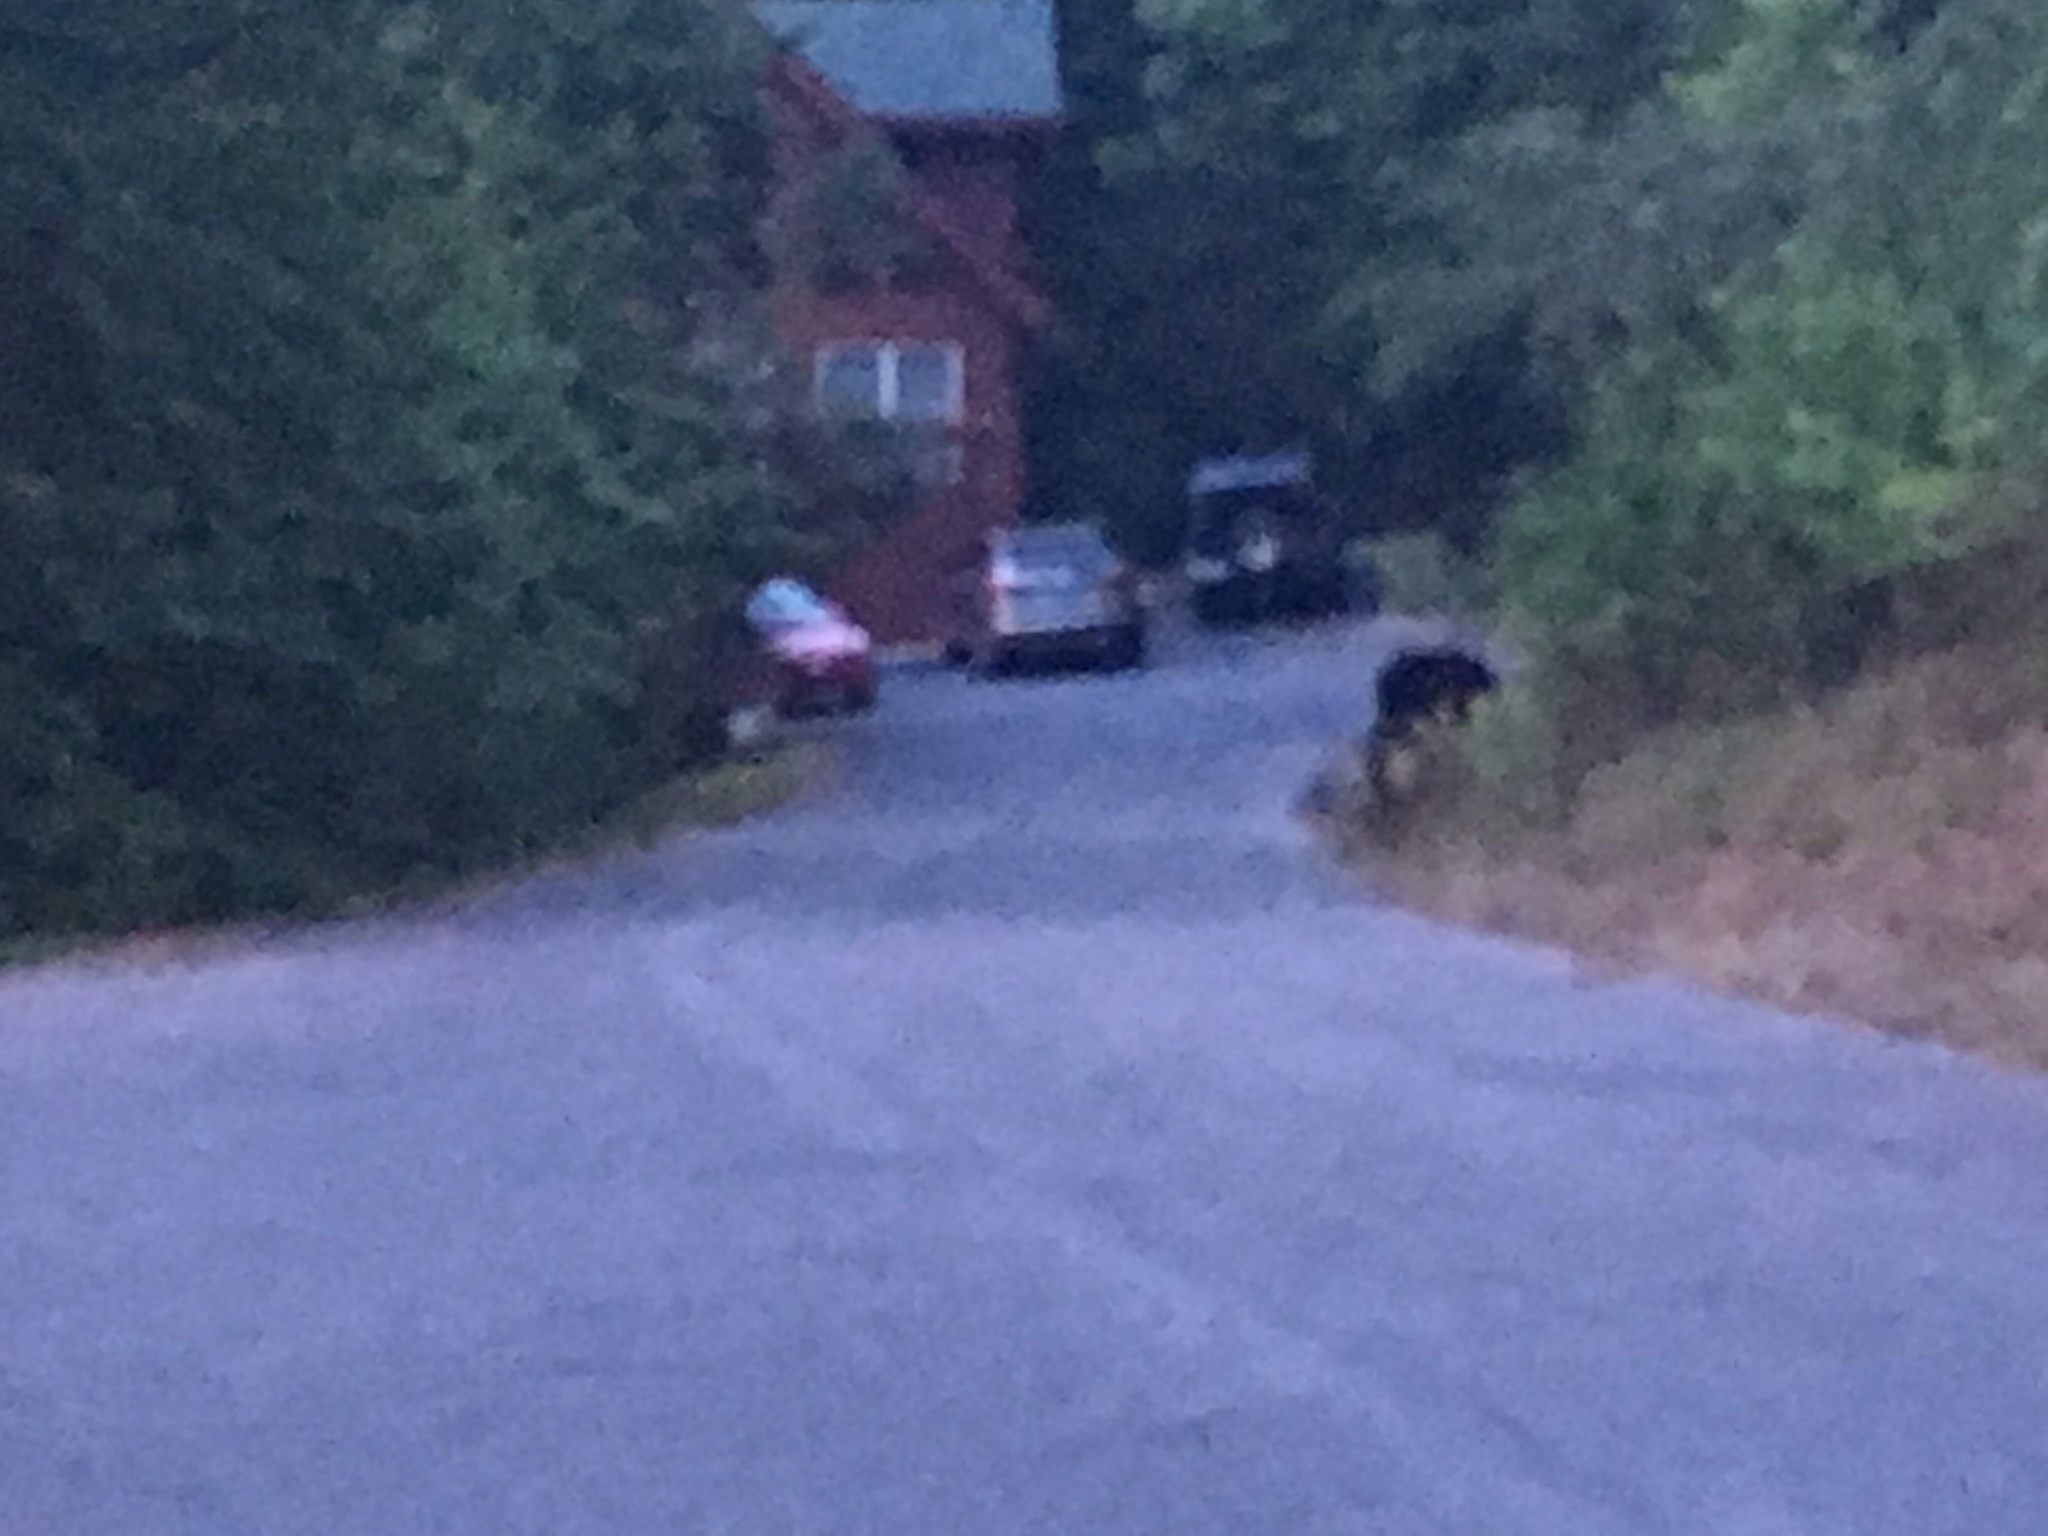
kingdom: Animalia
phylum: Chordata
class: Mammalia
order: Carnivora
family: Ursidae
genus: Ursus
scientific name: Ursus americanus
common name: American black bear
